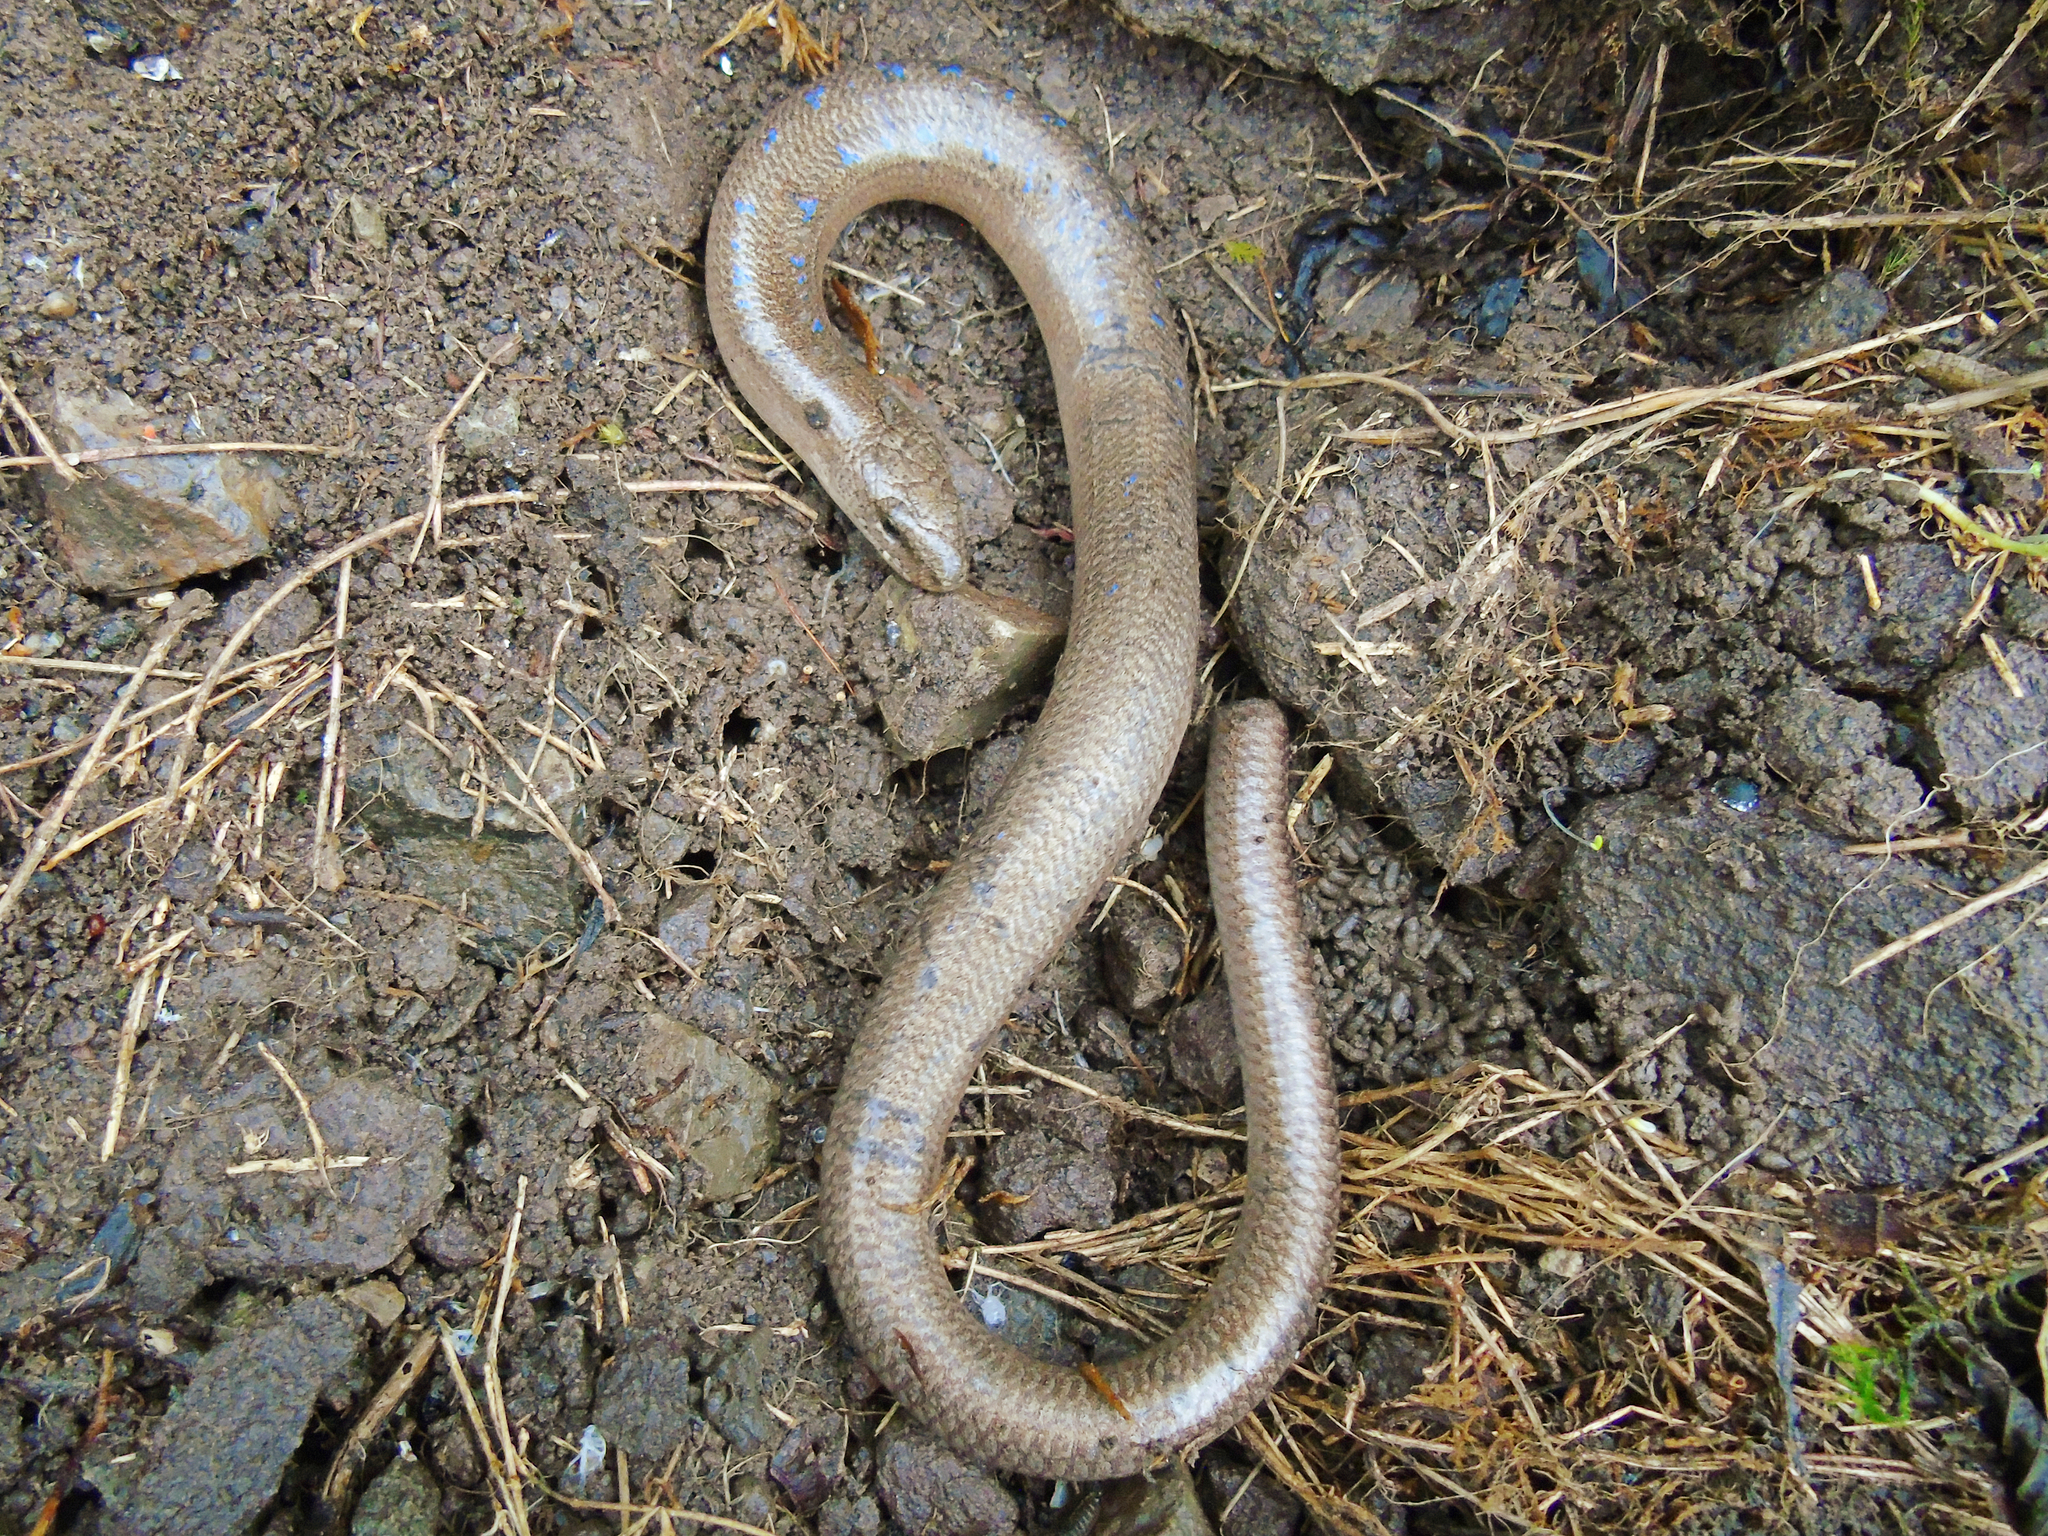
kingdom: Animalia
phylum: Chordata
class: Squamata
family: Anguidae
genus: Anguis
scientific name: Anguis colchica
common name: Slow worm
